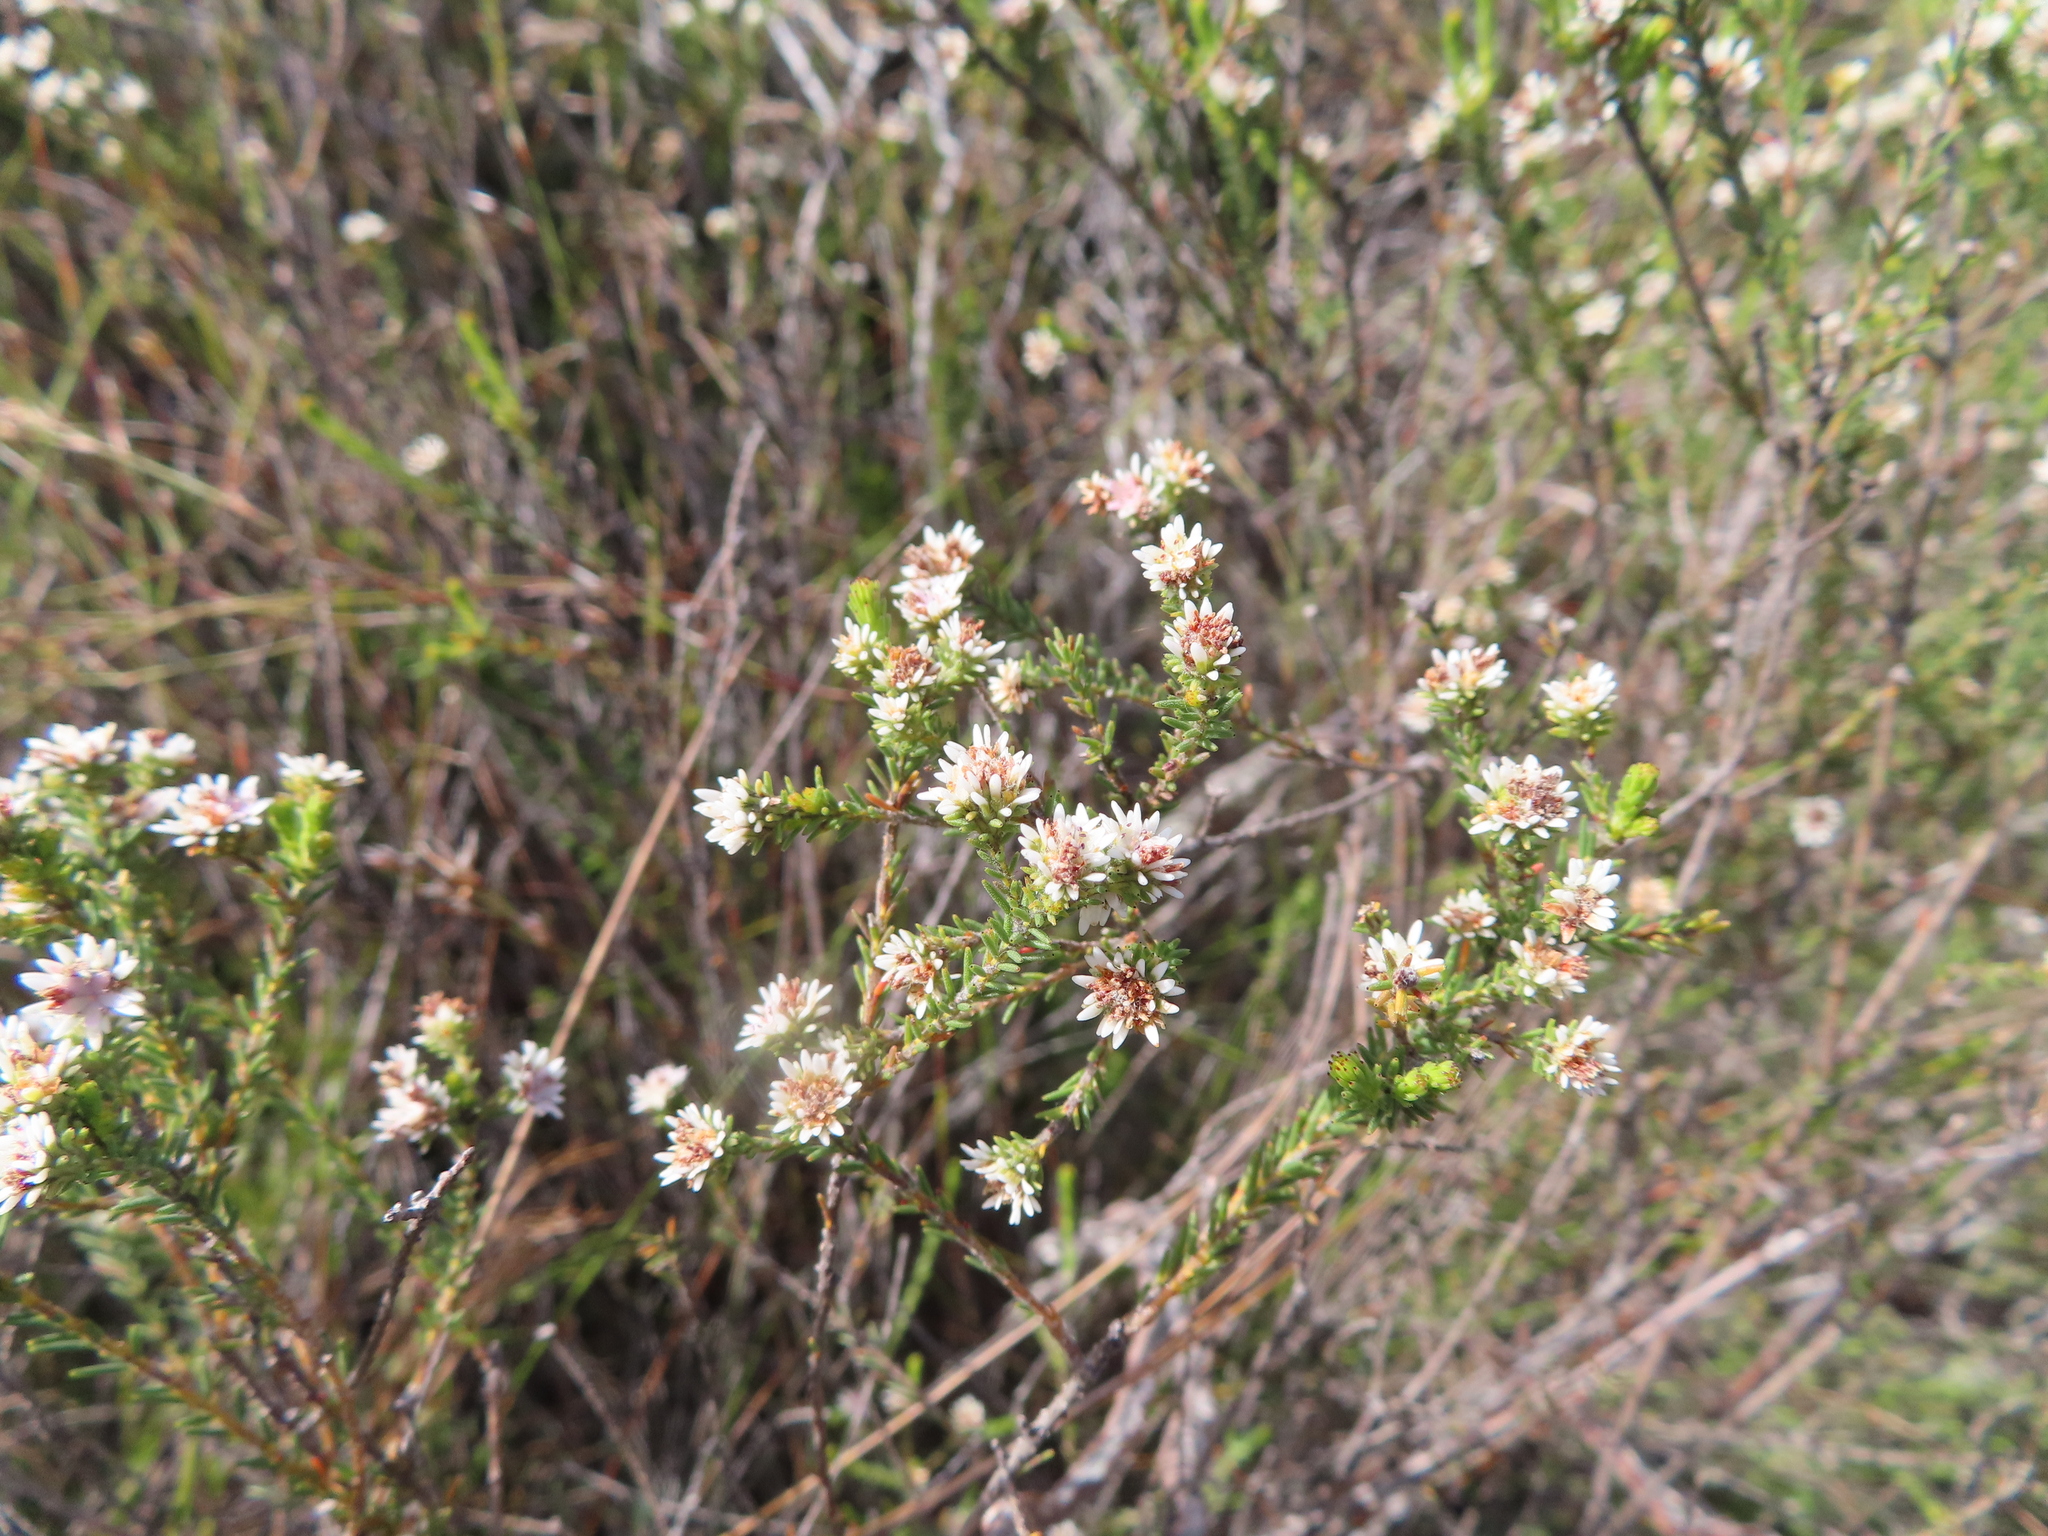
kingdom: Plantae
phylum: Tracheophyta
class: Magnoliopsida
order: Bruniales
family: Bruniaceae
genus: Staavia
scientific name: Staavia radiata
